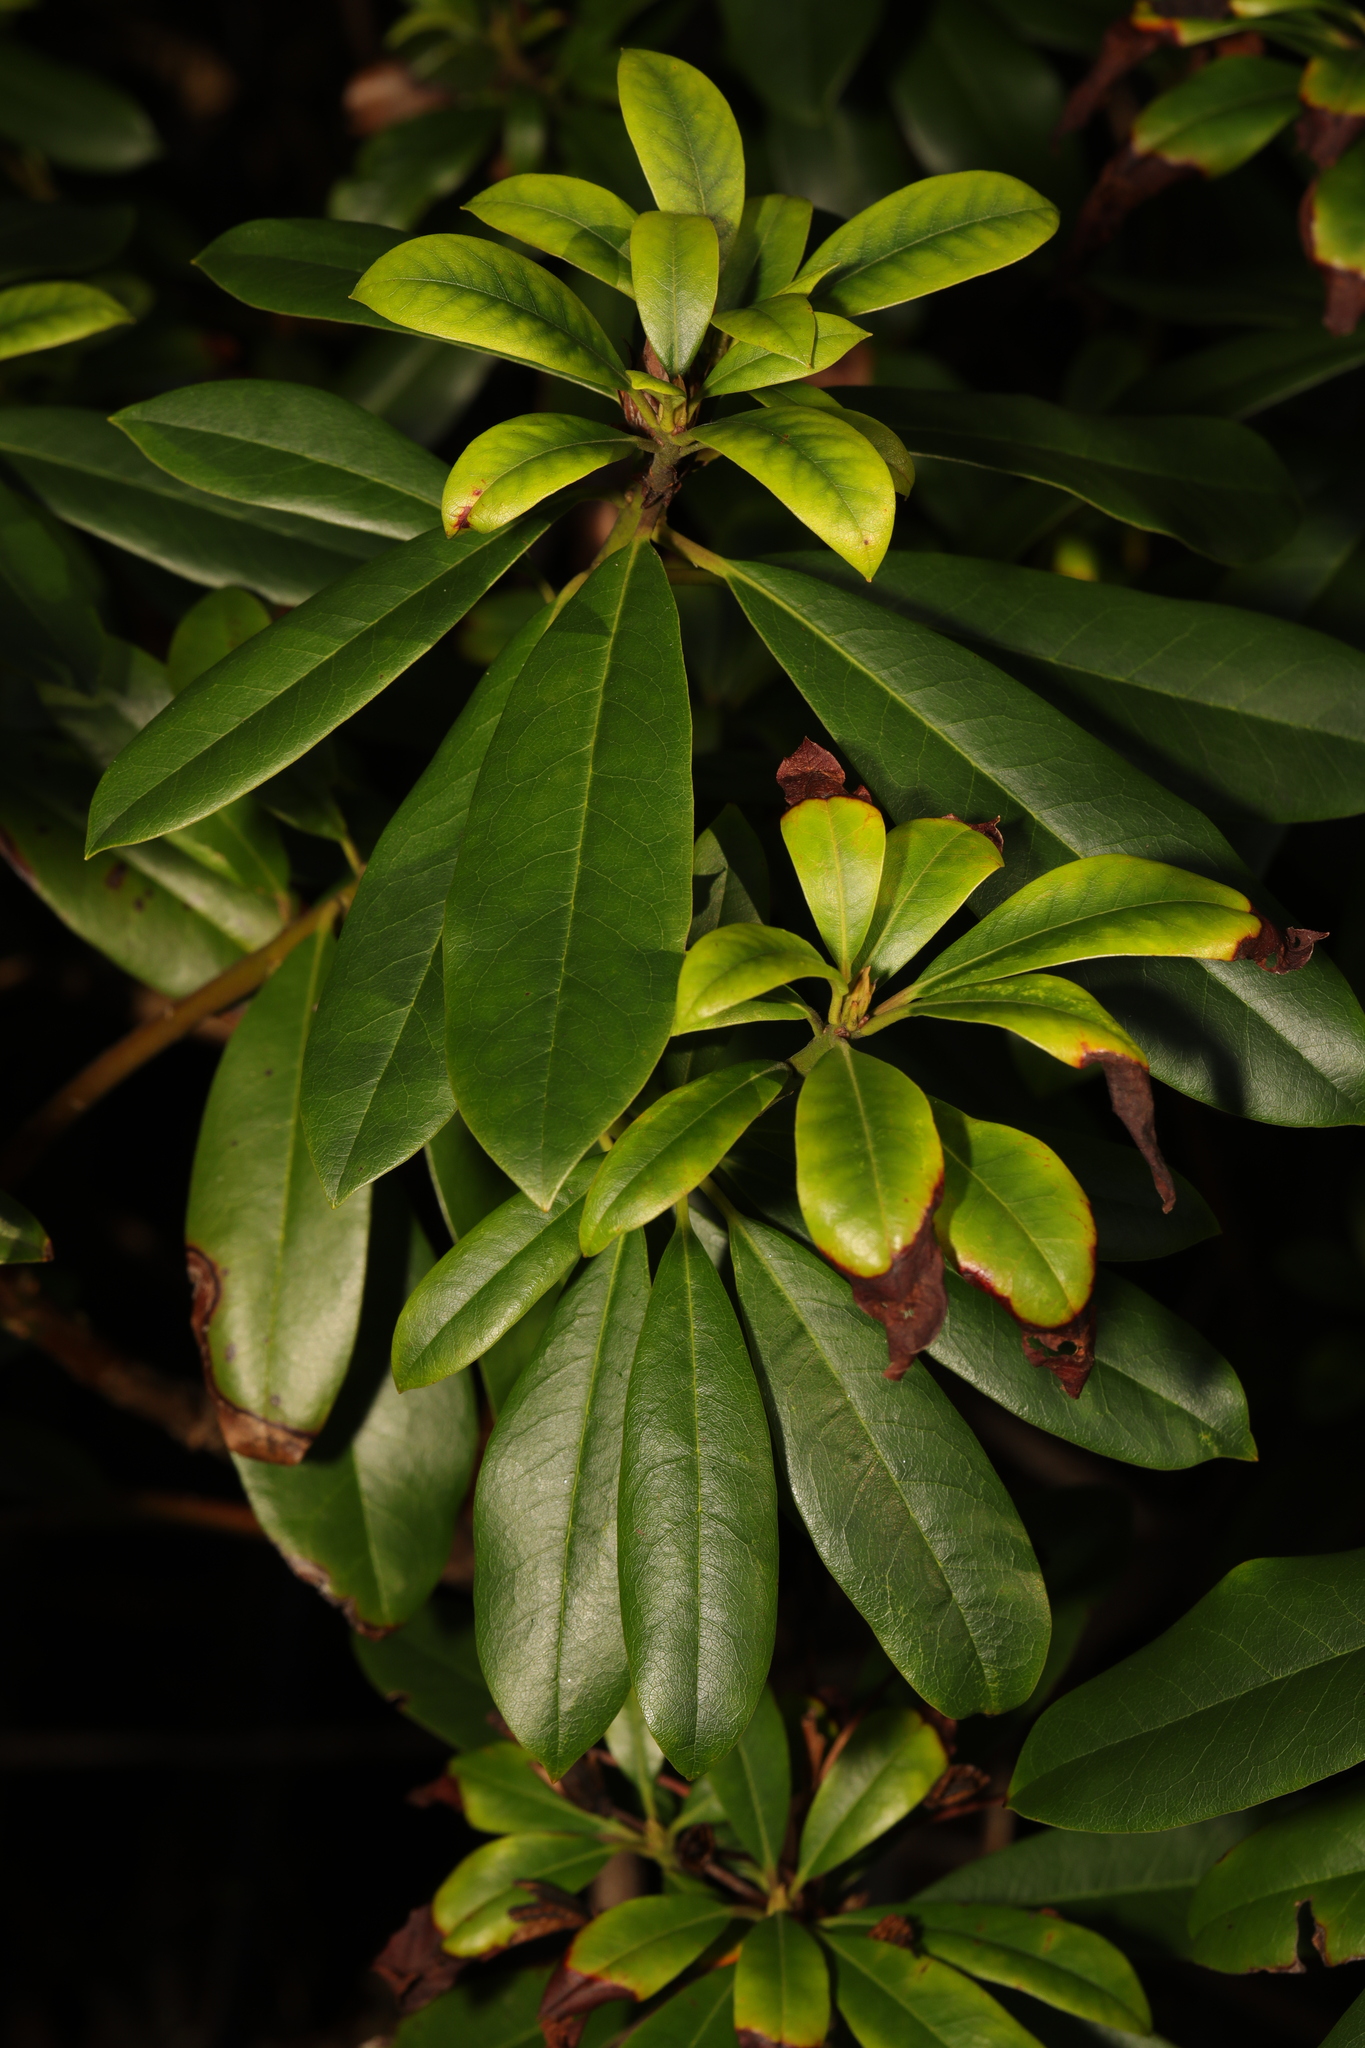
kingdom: Plantae
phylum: Tracheophyta
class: Magnoliopsida
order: Ericales
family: Ericaceae
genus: Rhododendron
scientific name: Rhododendron ponticum
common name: Rhododendron
